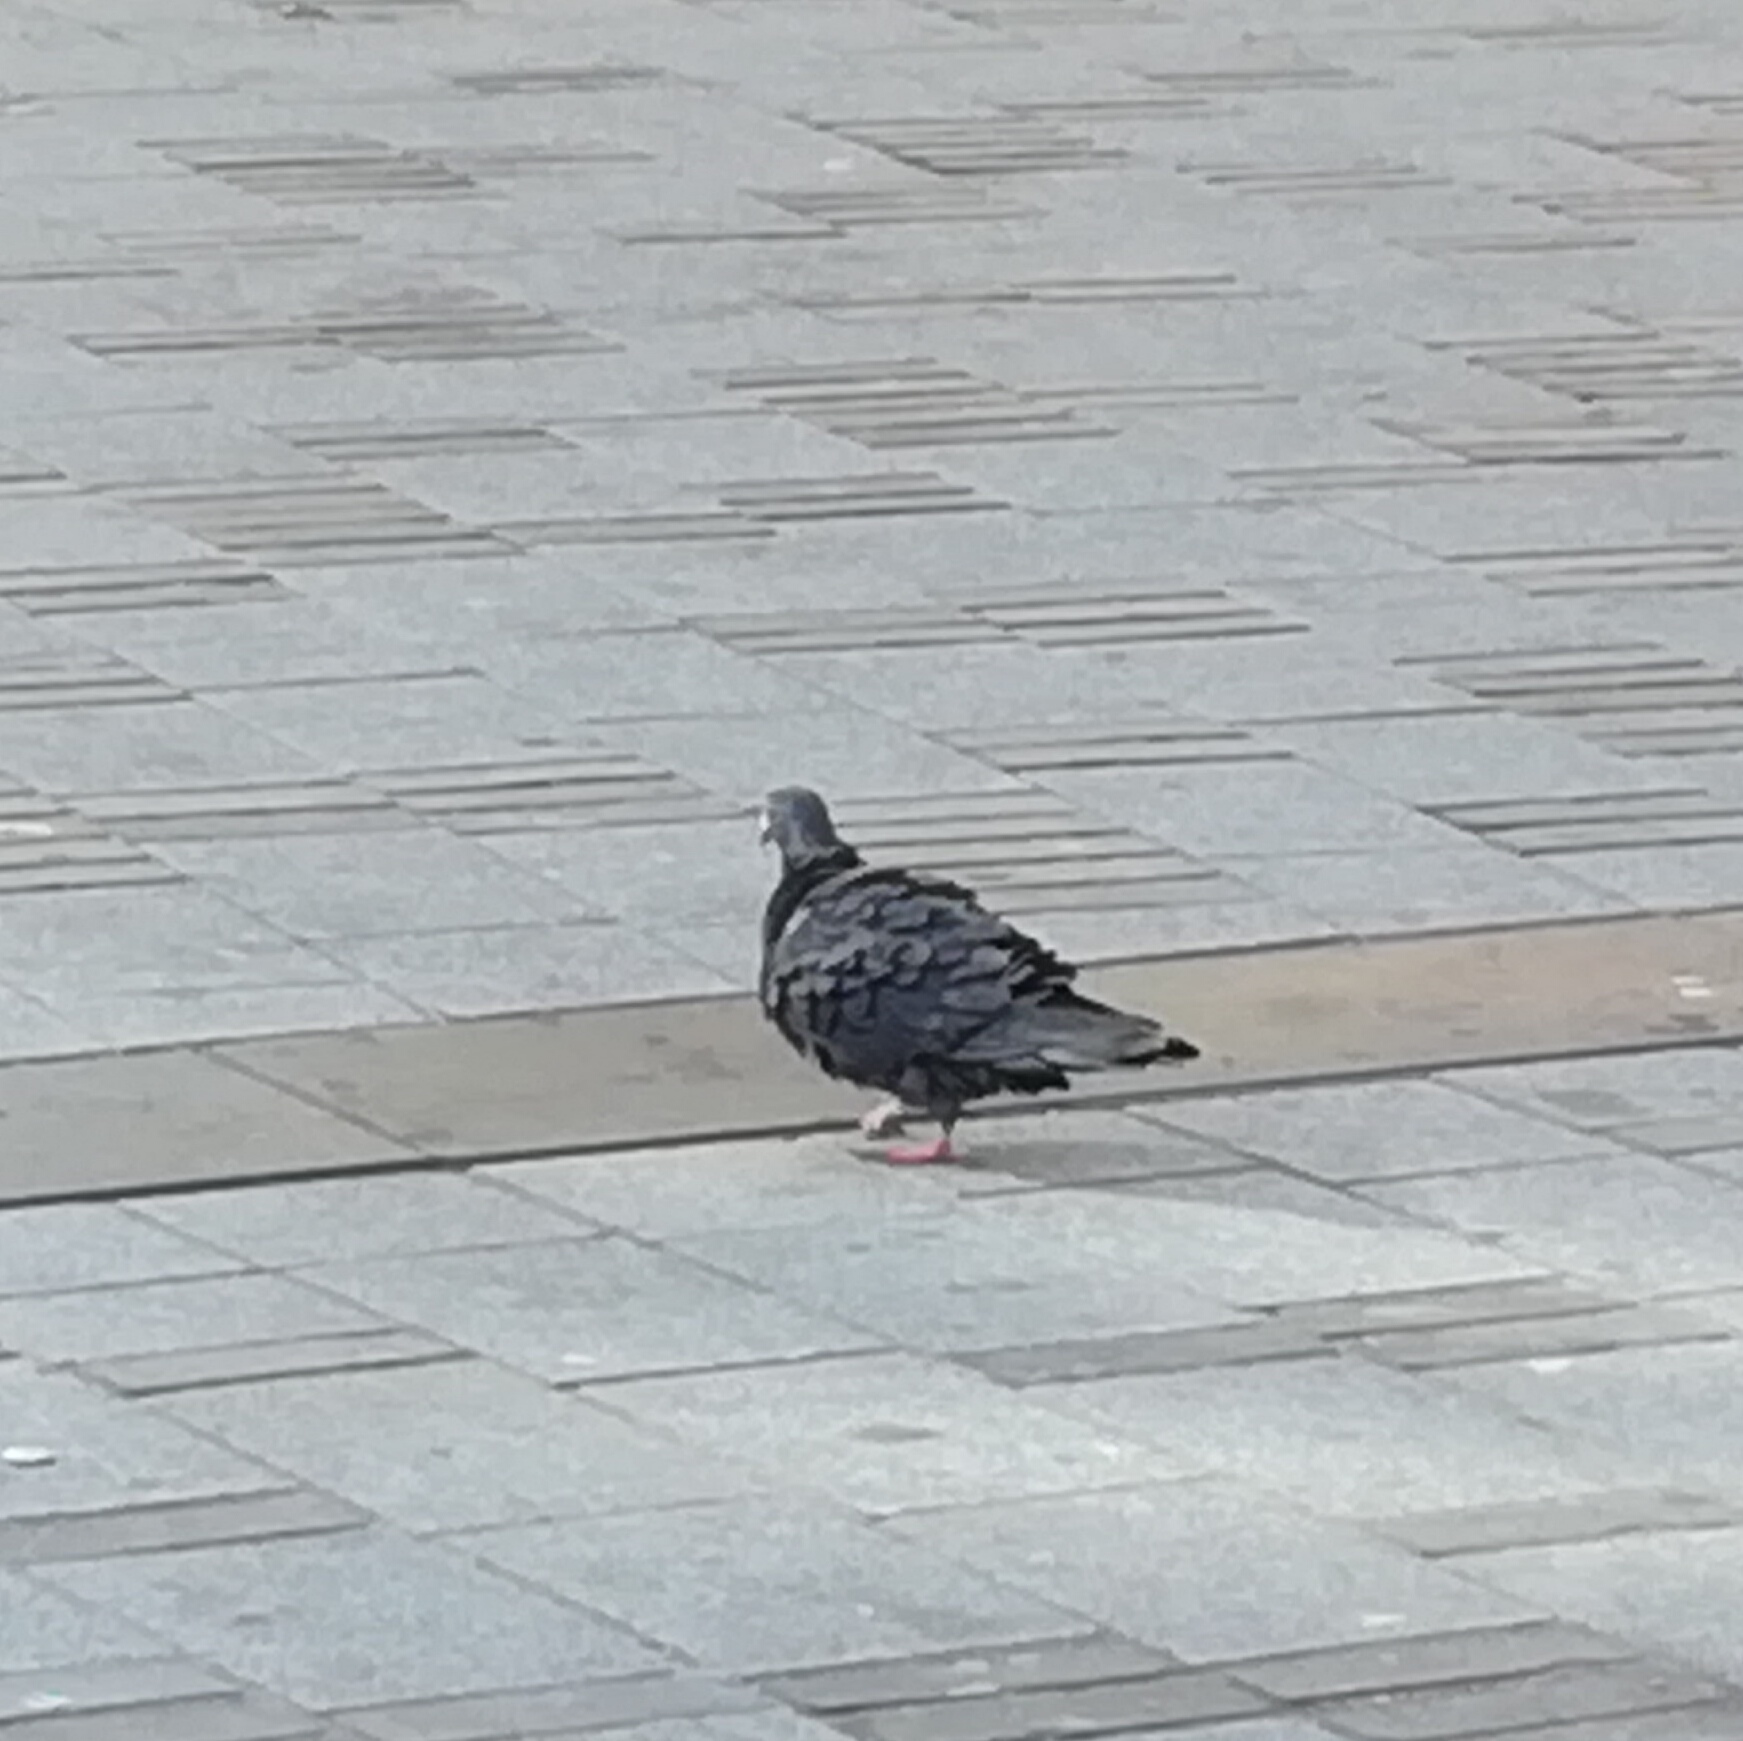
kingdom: Animalia
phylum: Chordata
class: Aves
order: Columbiformes
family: Columbidae
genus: Columba
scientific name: Columba livia
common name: Rock pigeon
